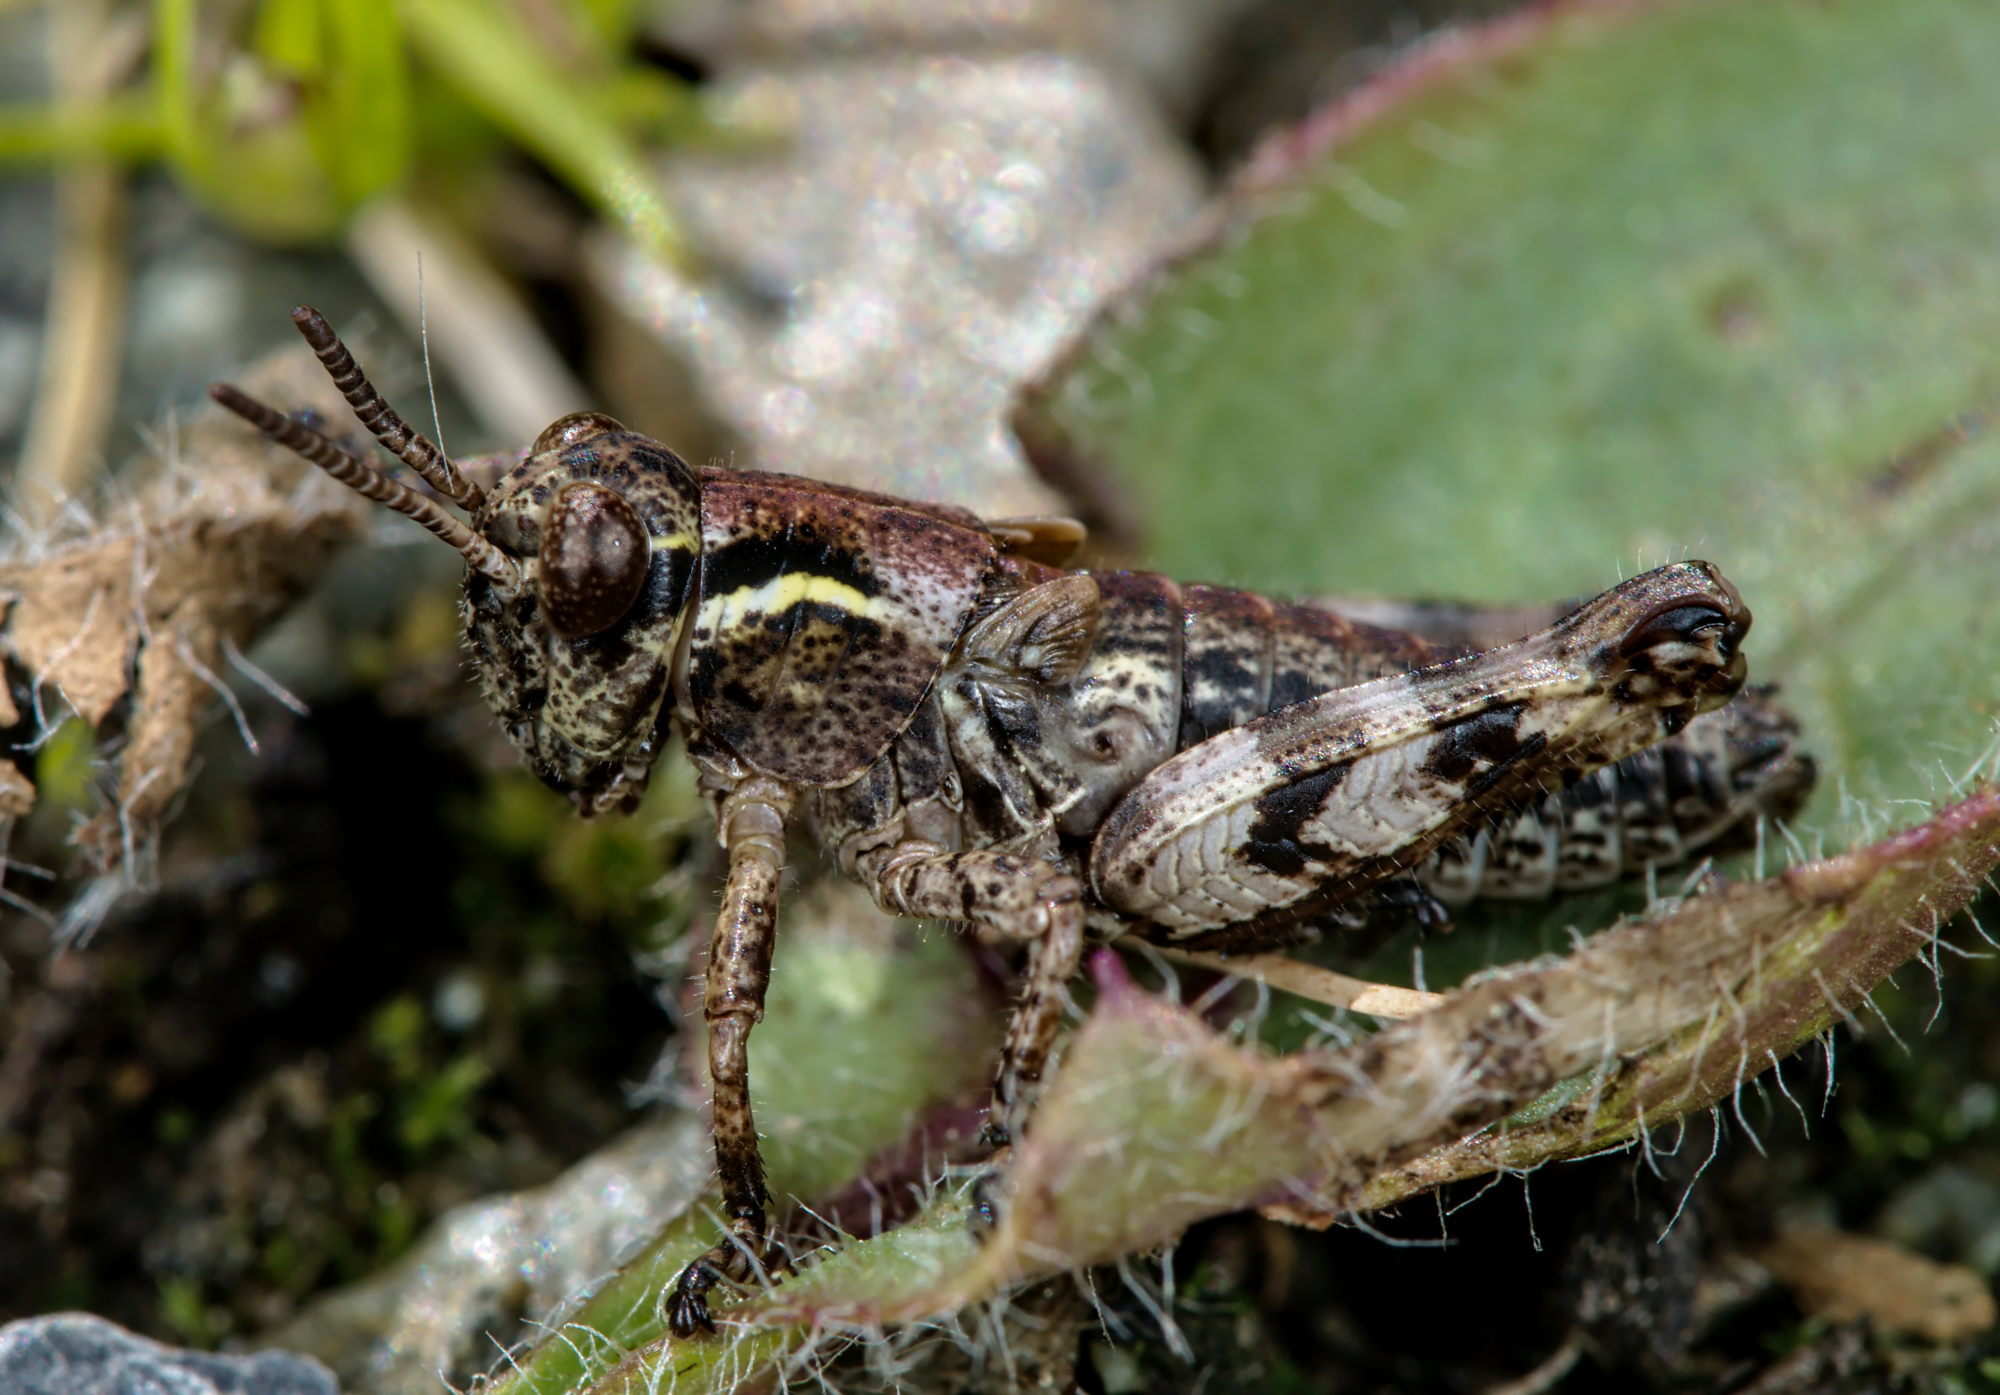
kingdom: Animalia
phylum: Arthropoda
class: Insecta
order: Orthoptera
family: Acrididae
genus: Bohemanella
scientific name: Bohemanella frigida
